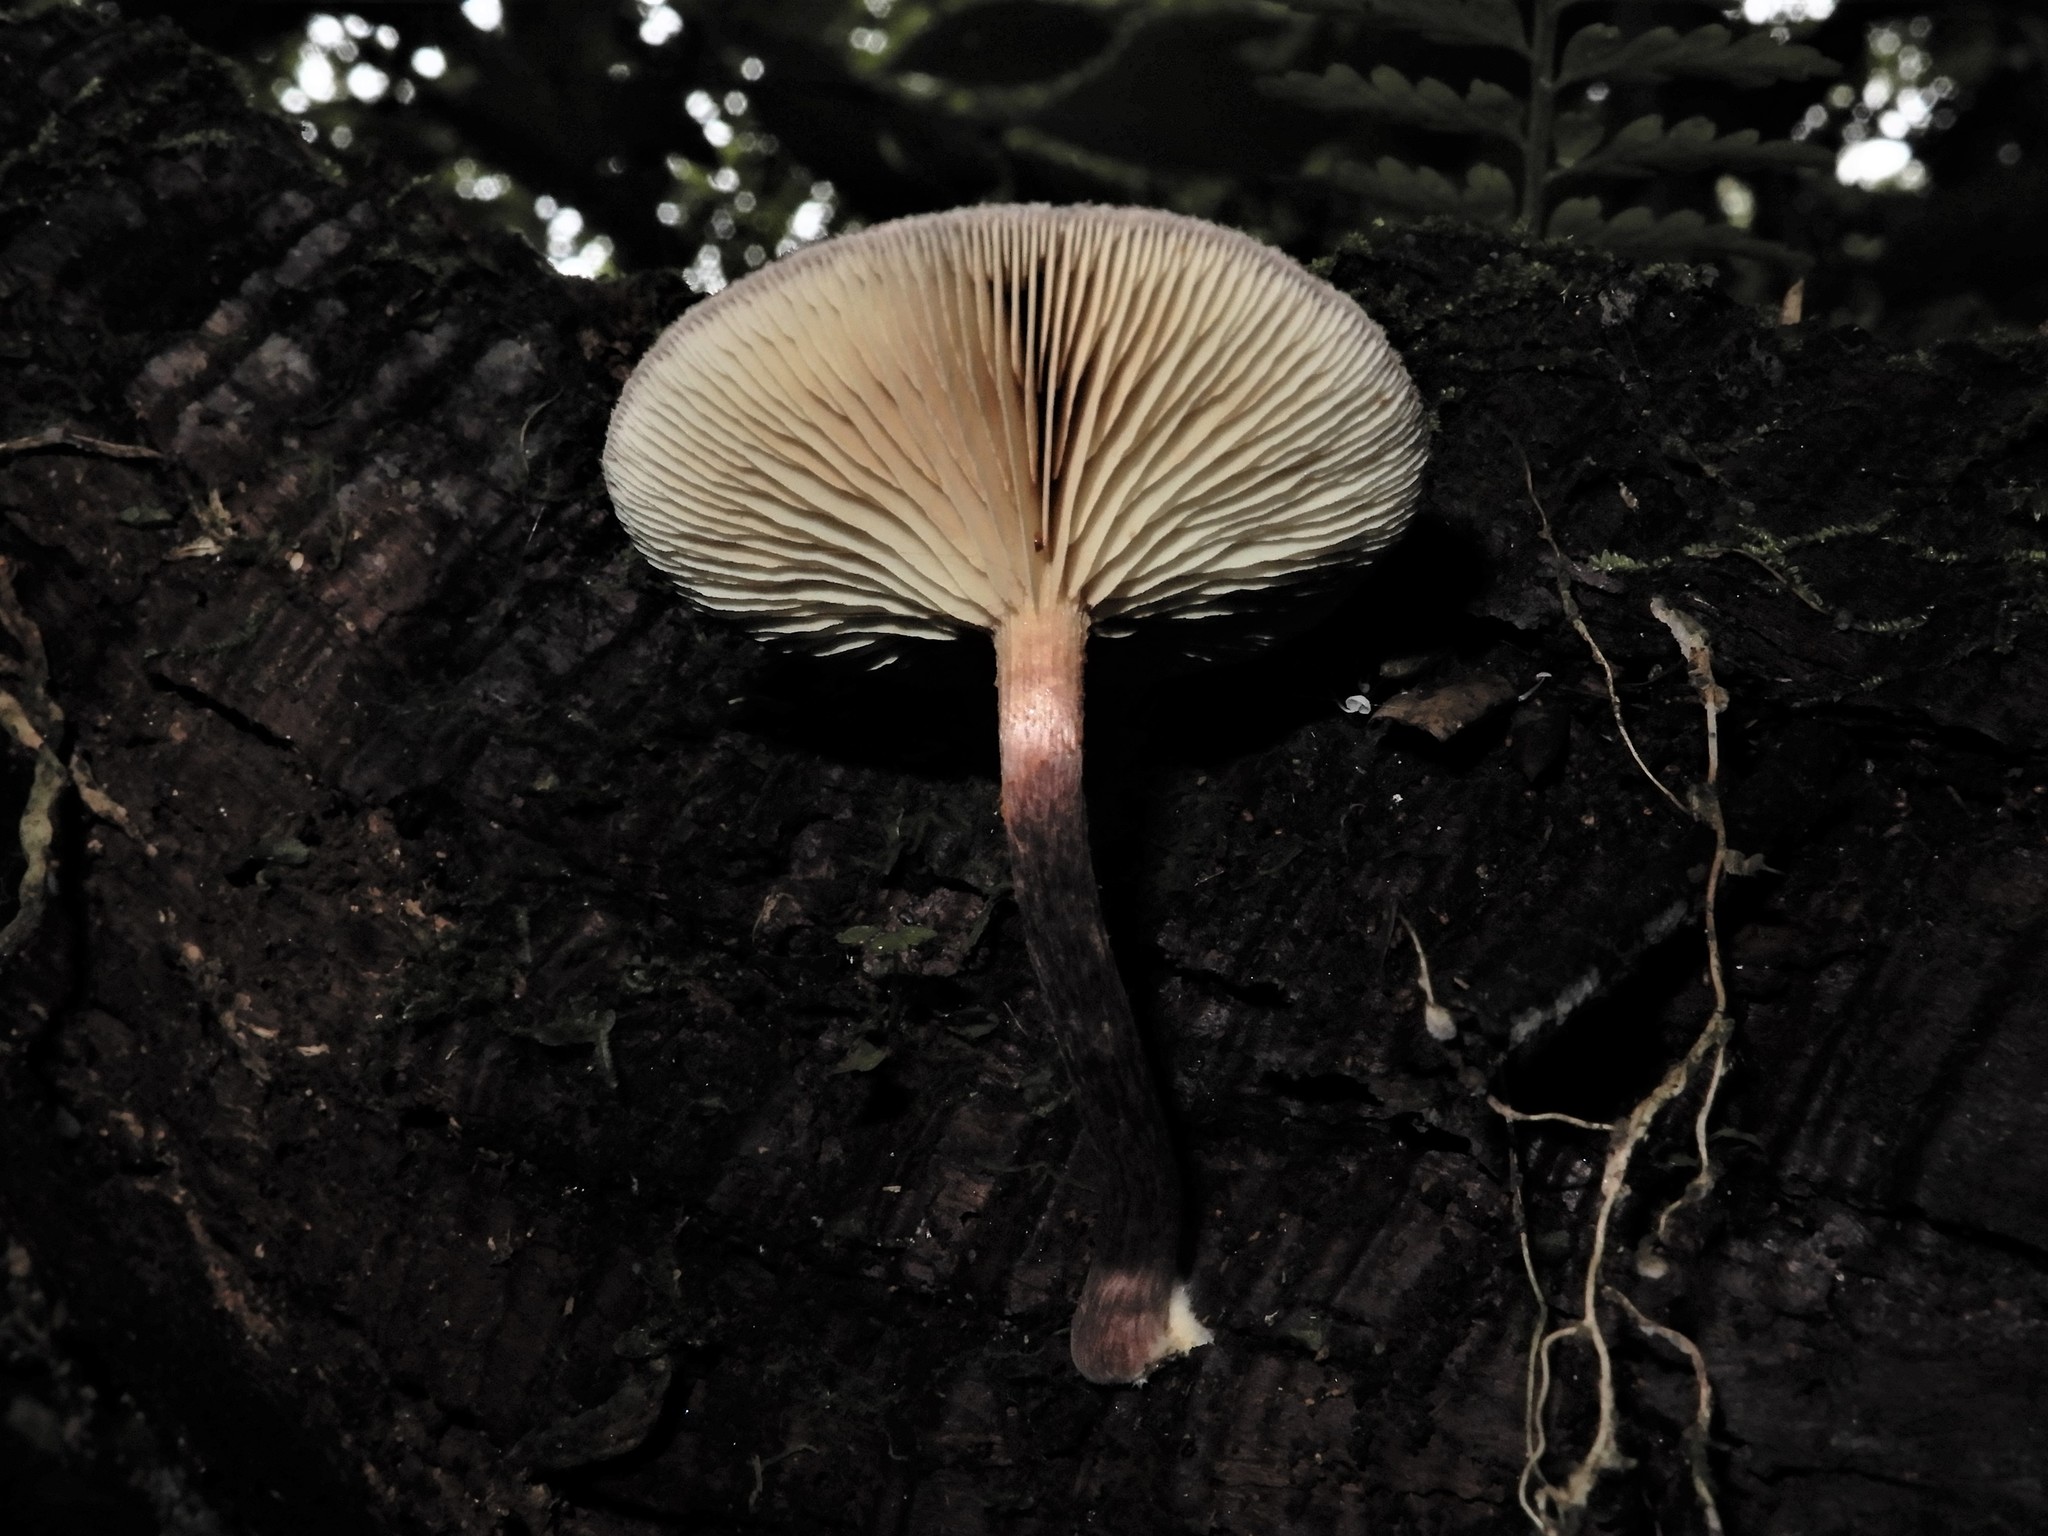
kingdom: Fungi
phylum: Basidiomycota
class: Agaricomycetes
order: Agaricales
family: Hymenogastraceae
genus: Gymnopilus
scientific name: Gymnopilus purpuratus
